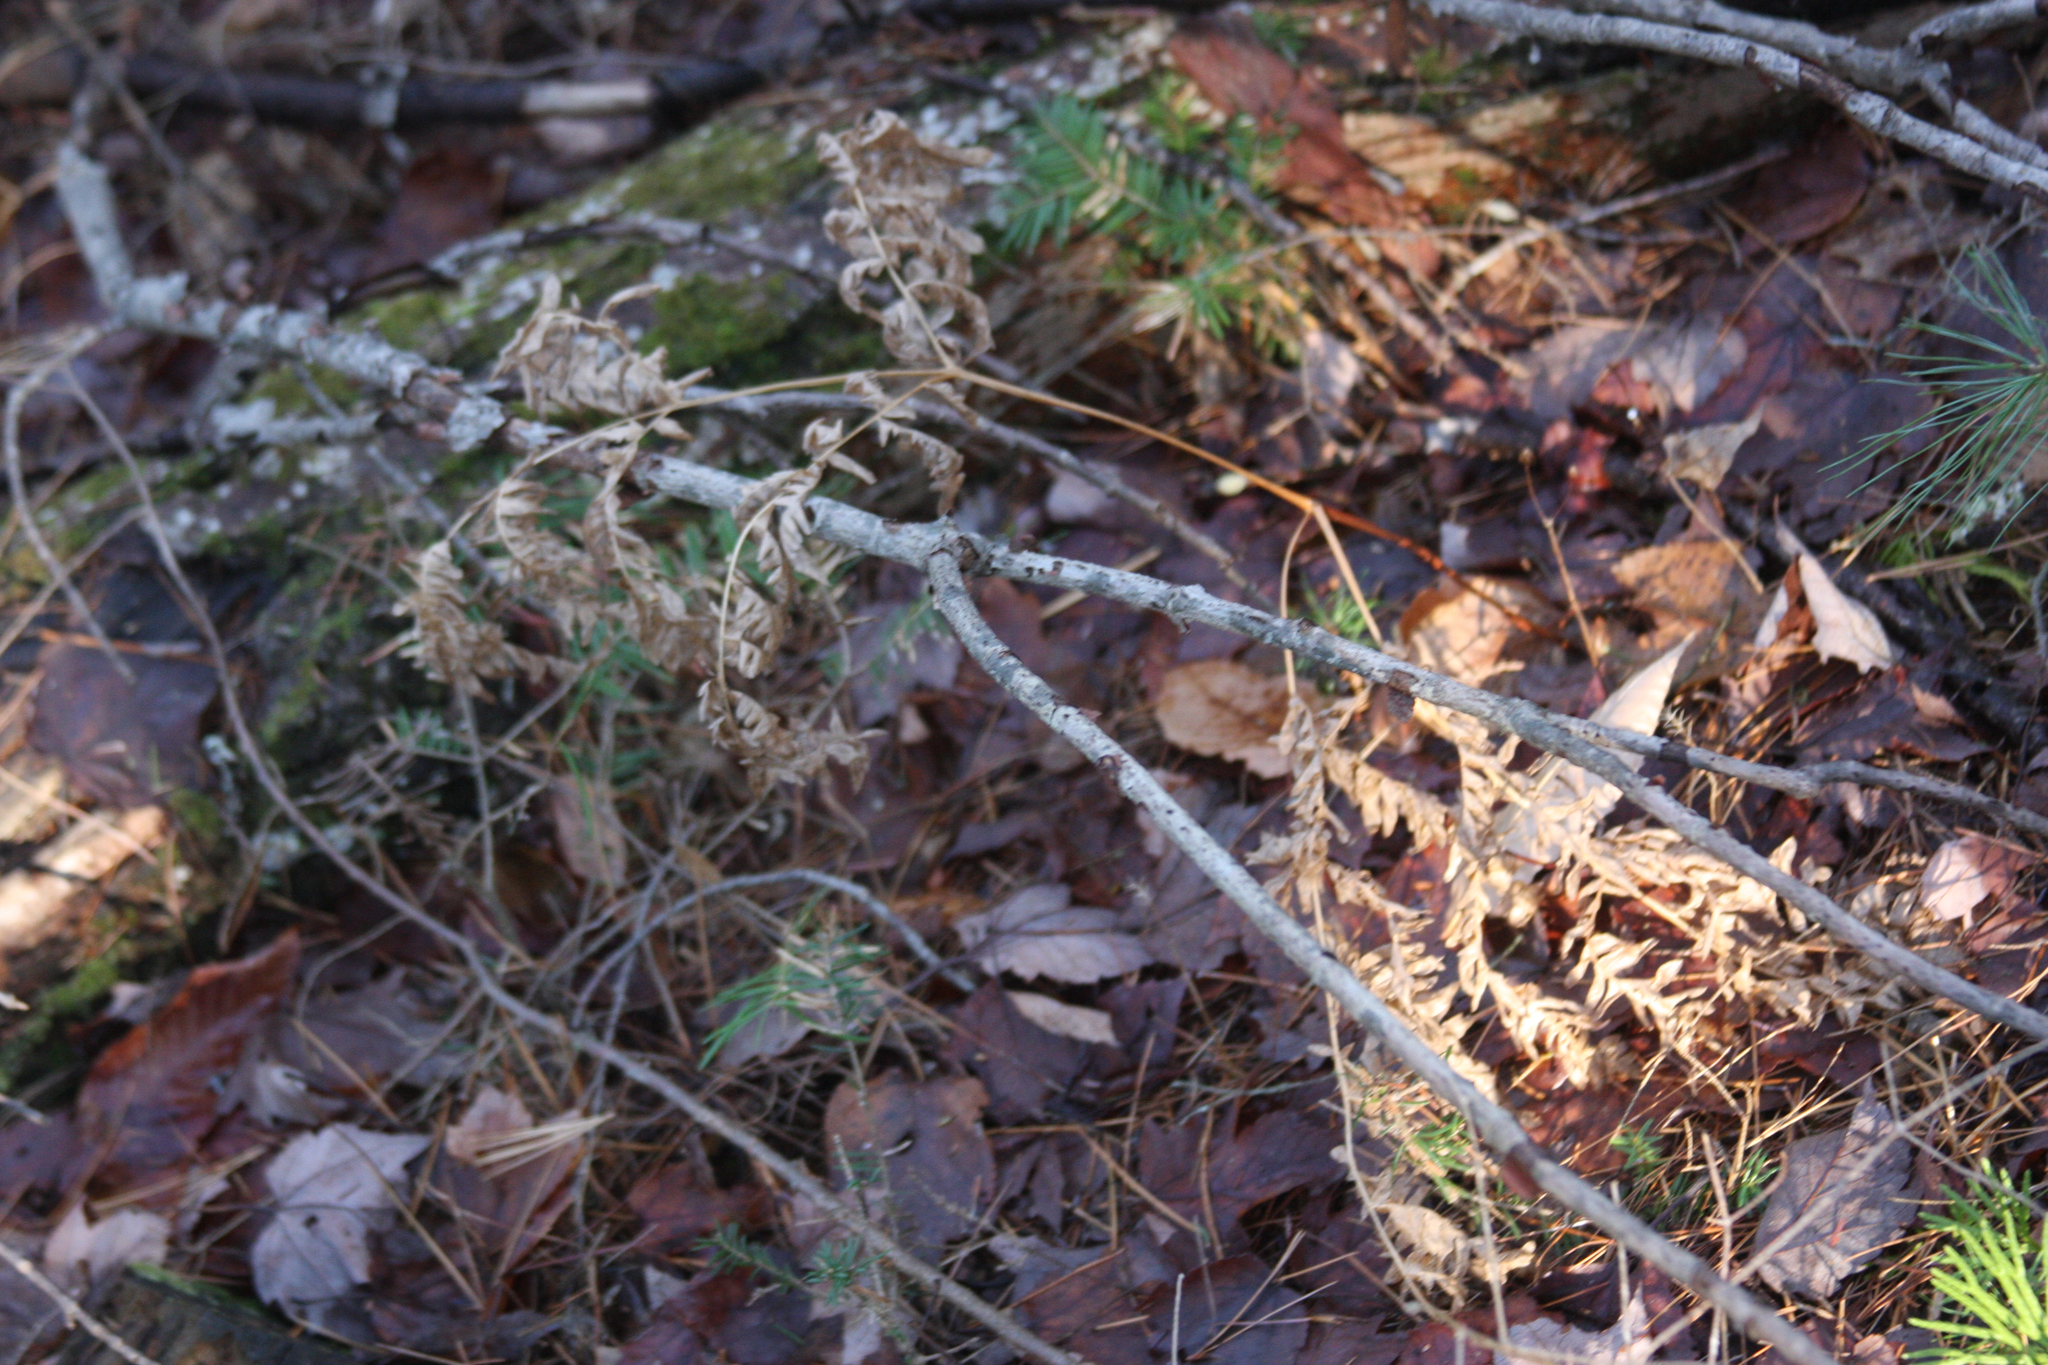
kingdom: Plantae
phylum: Tracheophyta
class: Polypodiopsida
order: Polypodiales
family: Dennstaedtiaceae
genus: Pteridium
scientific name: Pteridium aquilinum
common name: Bracken
